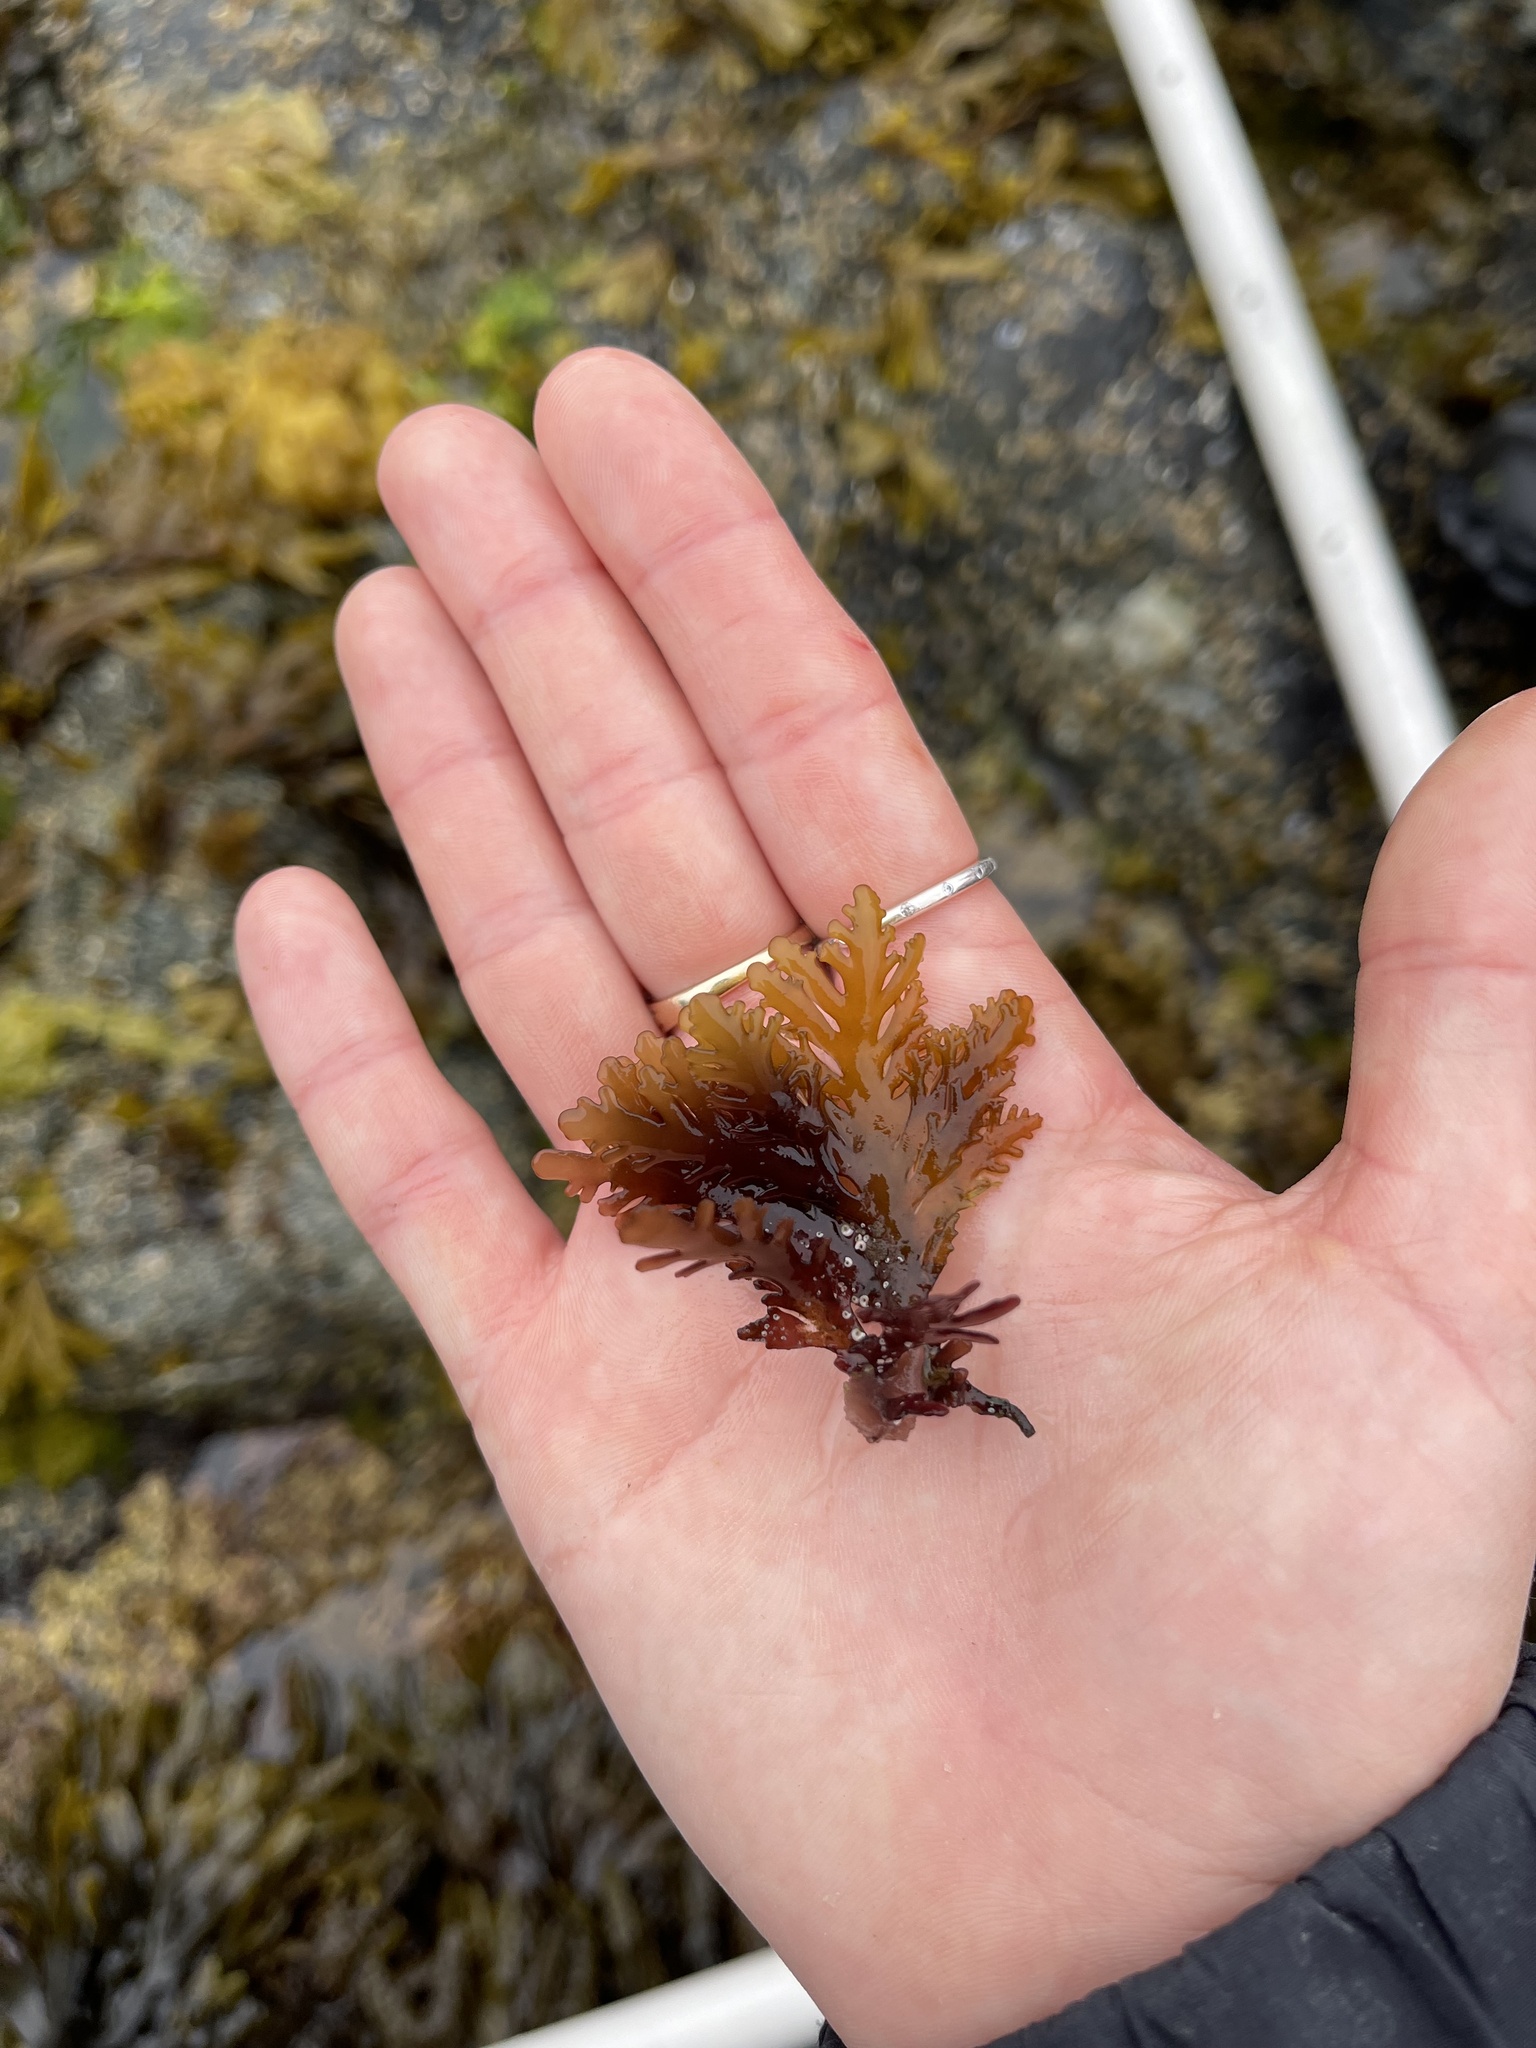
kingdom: Plantae
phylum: Rhodophyta
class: Florideophyceae
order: Ceramiales
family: Rhodomelaceae
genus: Osmundea
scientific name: Osmundea spectabilis
